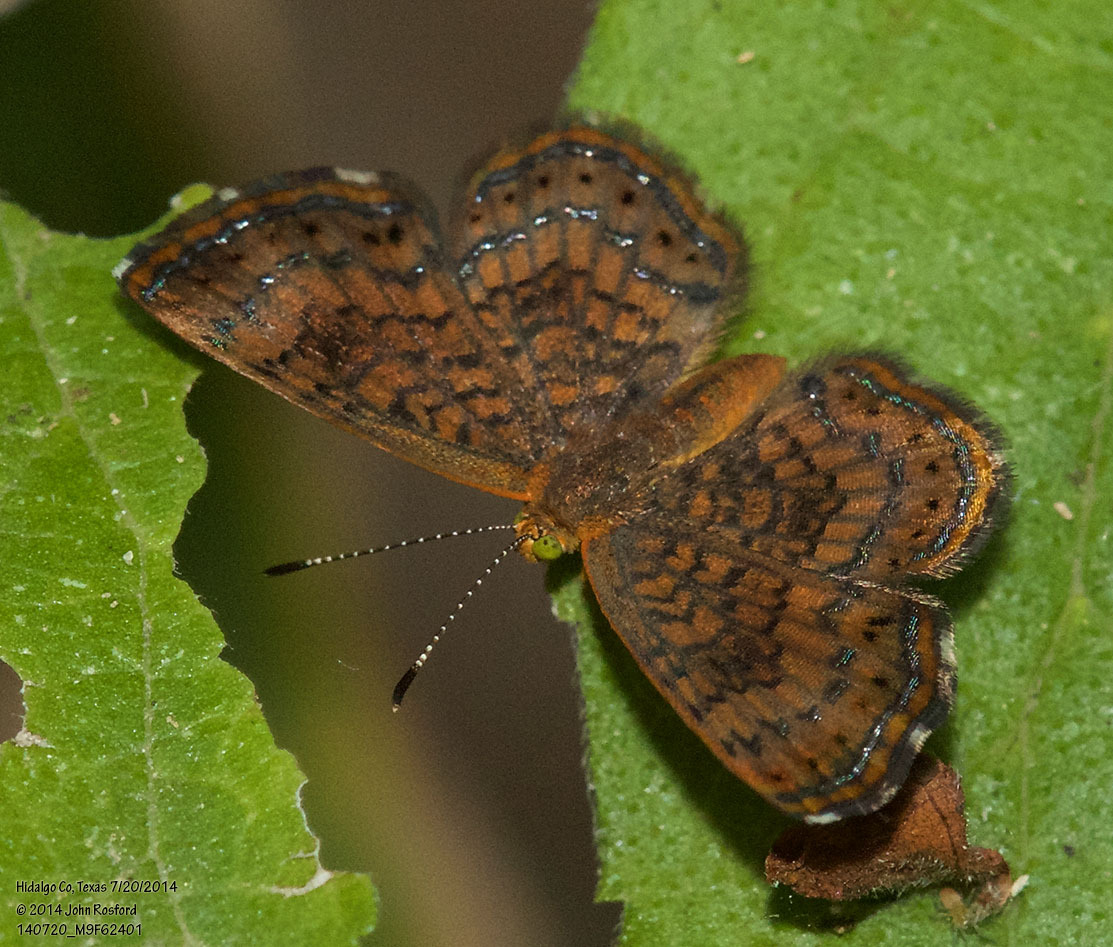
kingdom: Animalia
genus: Calephelis
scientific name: Calephelis nemesis
